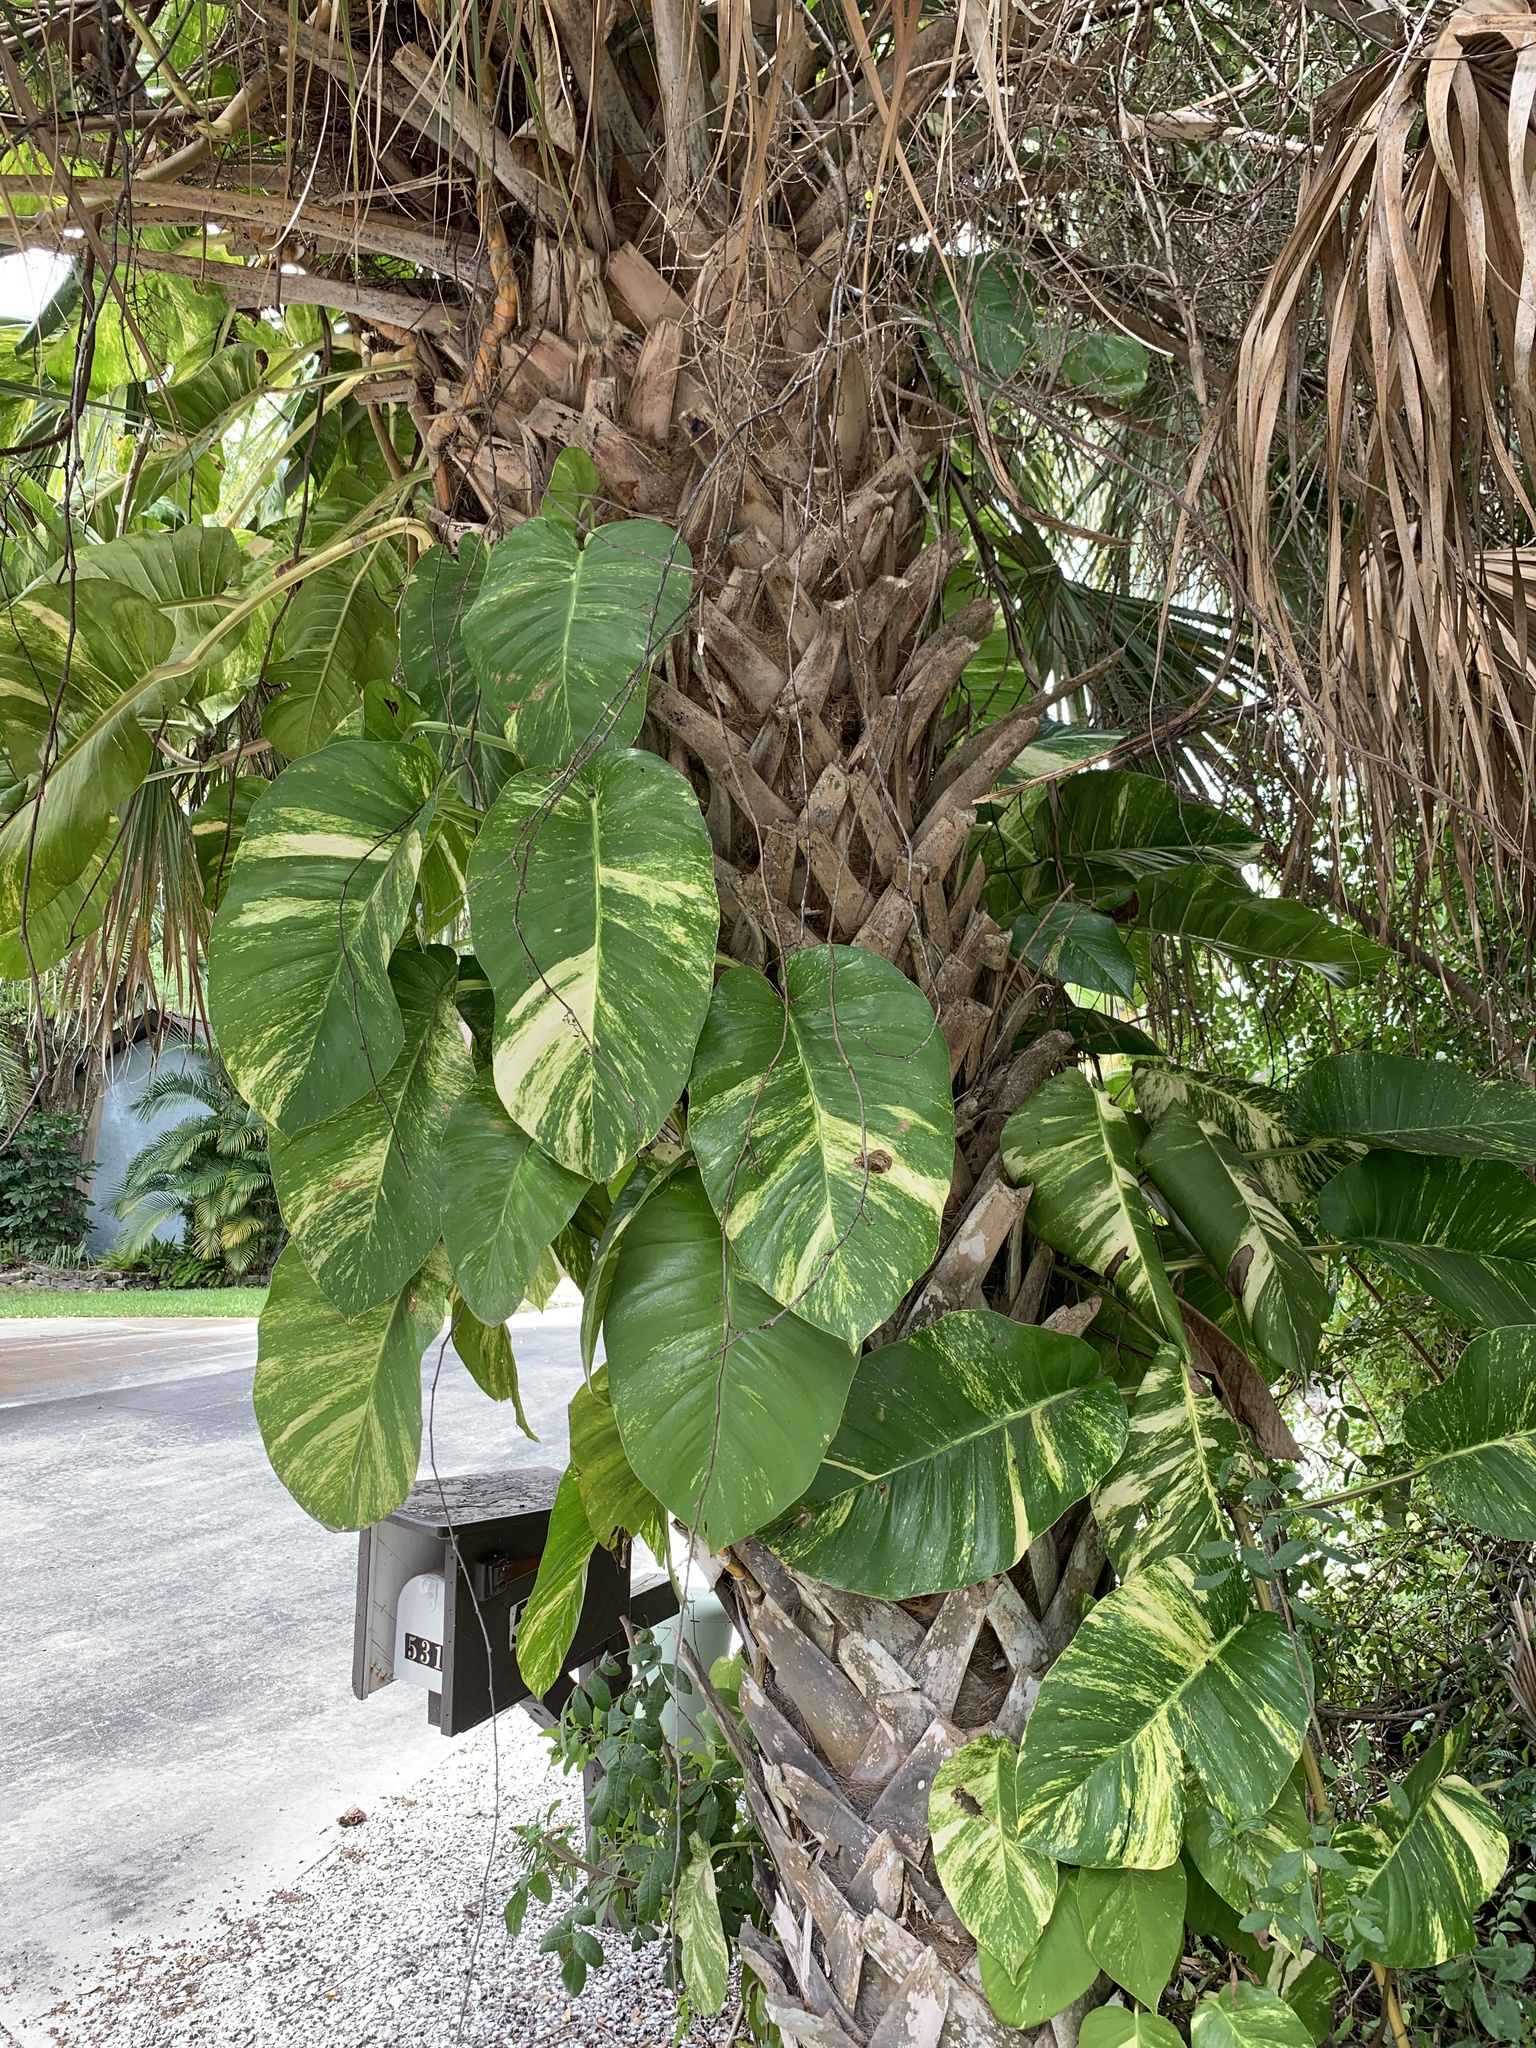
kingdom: Plantae
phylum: Tracheophyta
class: Liliopsida
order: Alismatales
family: Araceae
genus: Epipremnum
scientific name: Epipremnum aureum
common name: Golden hunter's-robe
